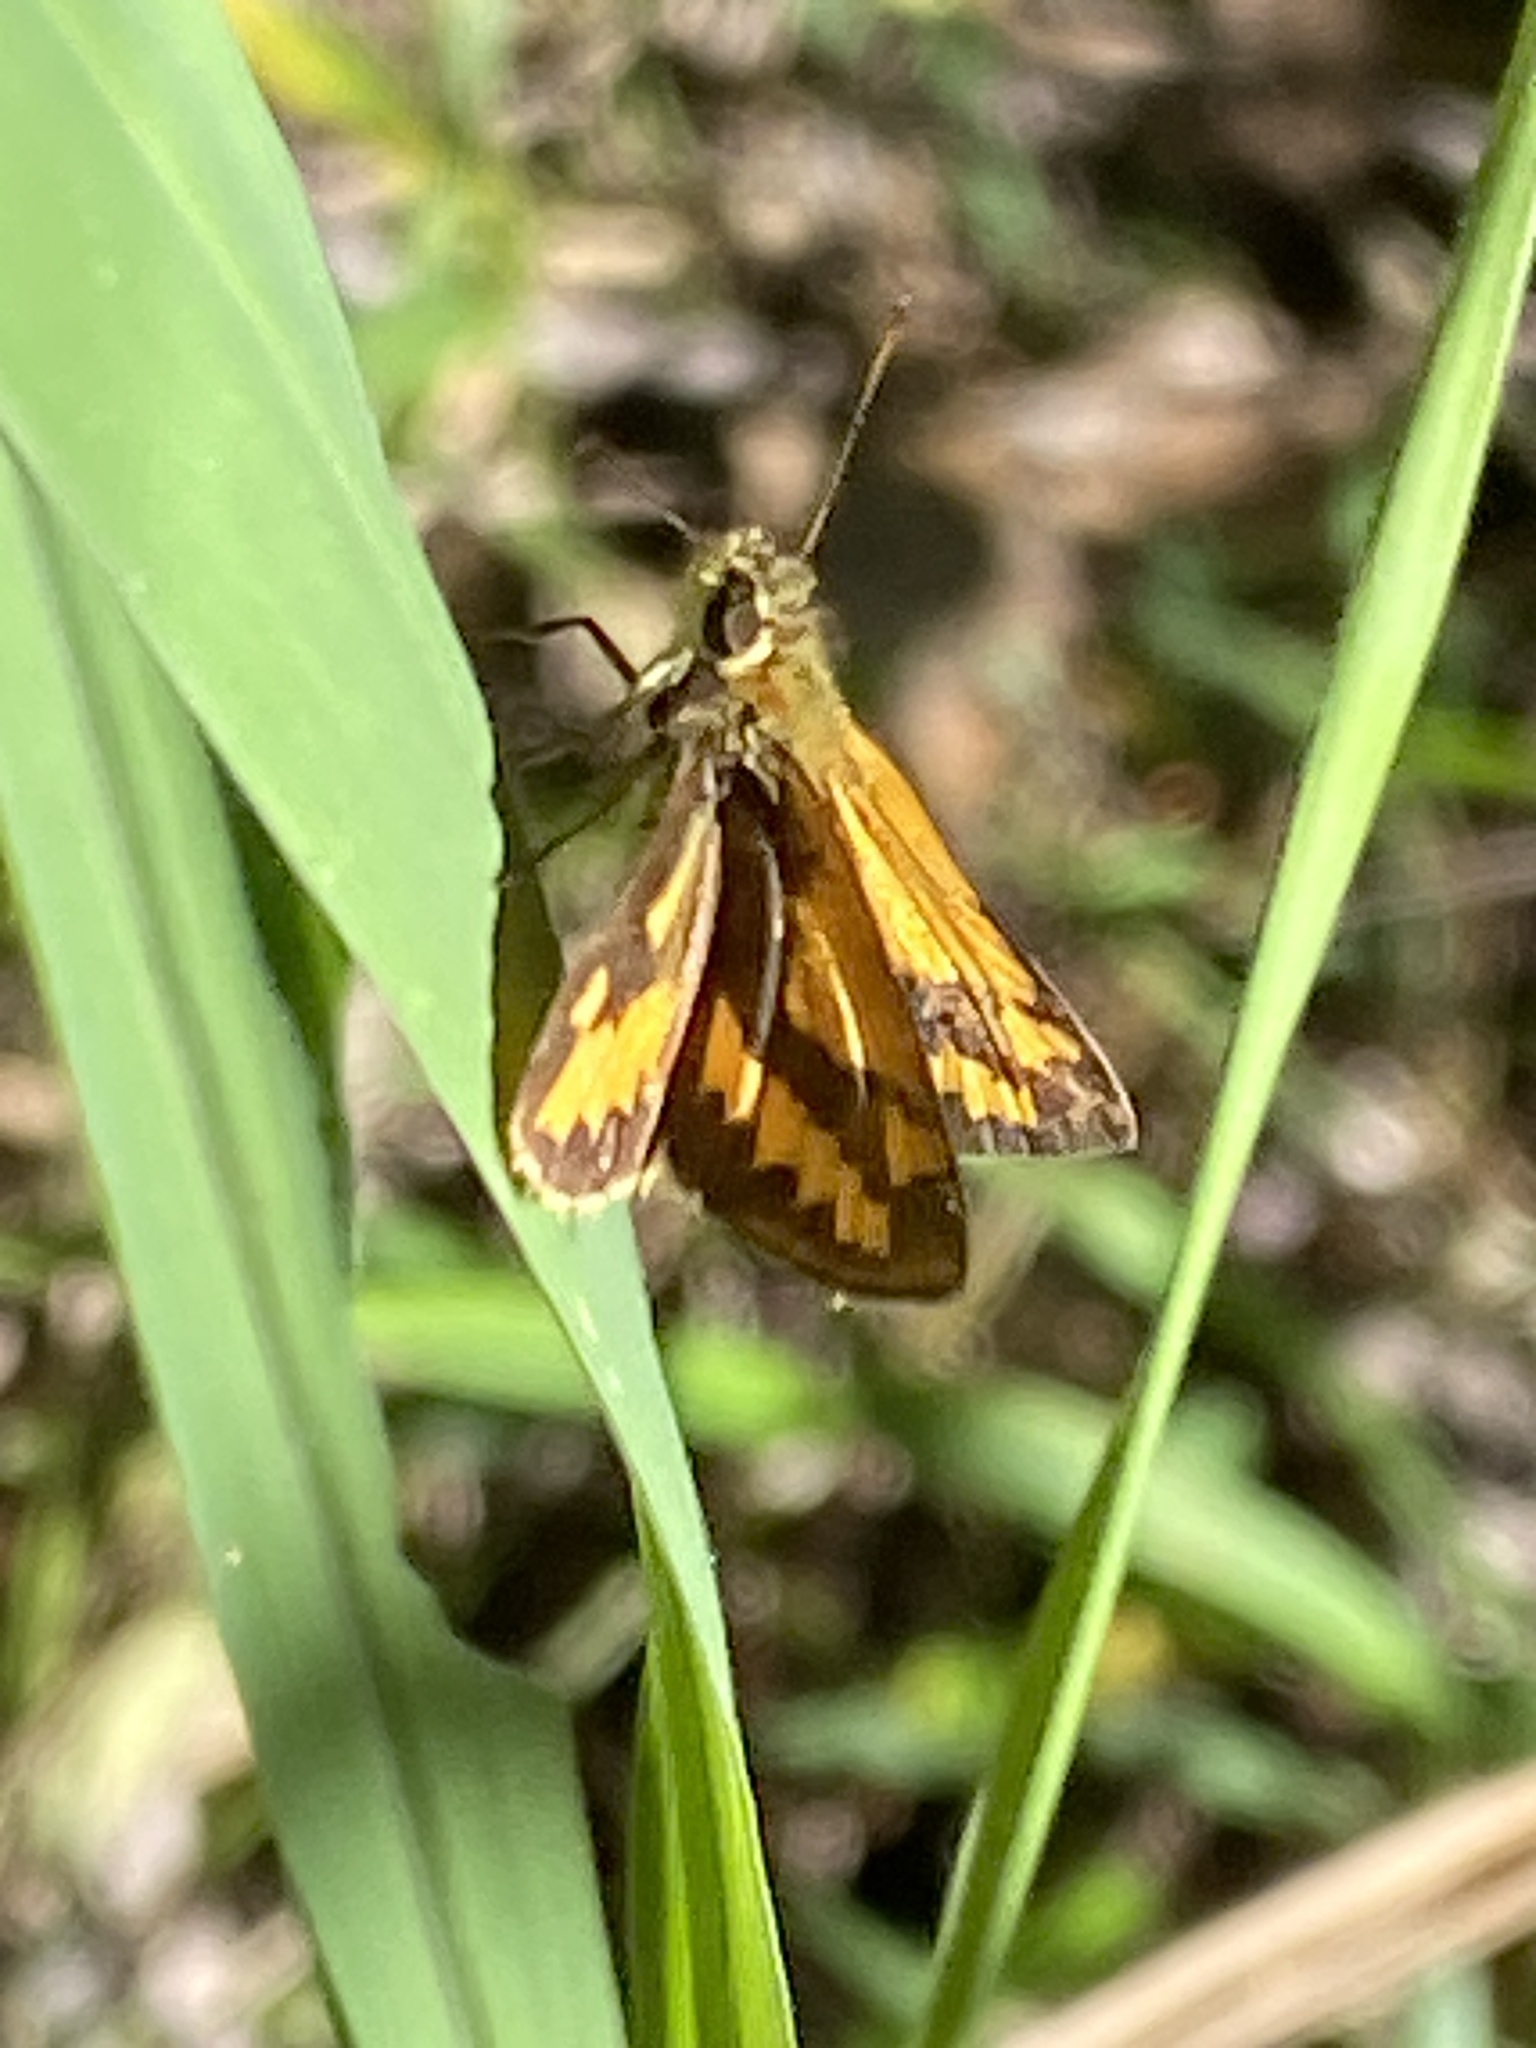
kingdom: Animalia
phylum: Arthropoda
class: Insecta
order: Lepidoptera
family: Hesperiidae
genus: Suniana
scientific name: Suniana sunias
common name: Wide-brand grass-dart
